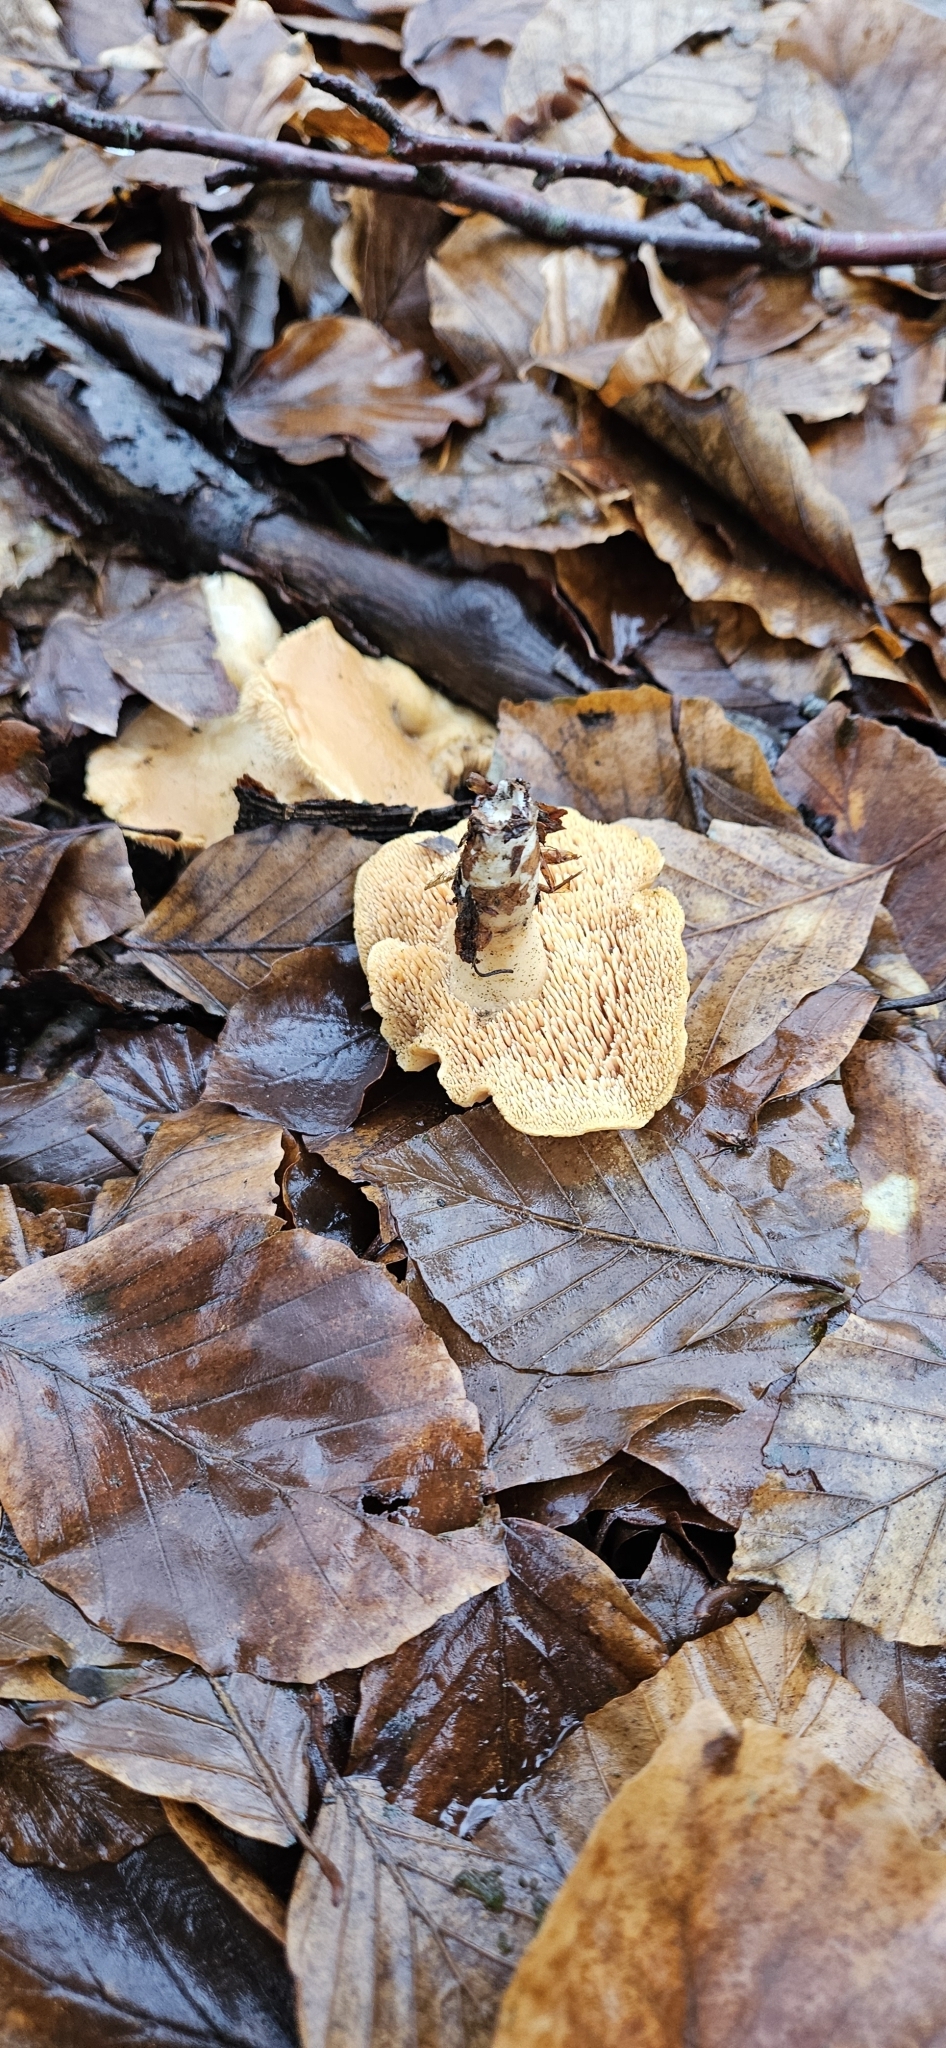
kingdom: Fungi
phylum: Basidiomycota
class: Agaricomycetes
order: Cantharellales
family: Hydnaceae
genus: Hydnum
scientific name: Hydnum rufescens
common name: Terracotta hedgehog
